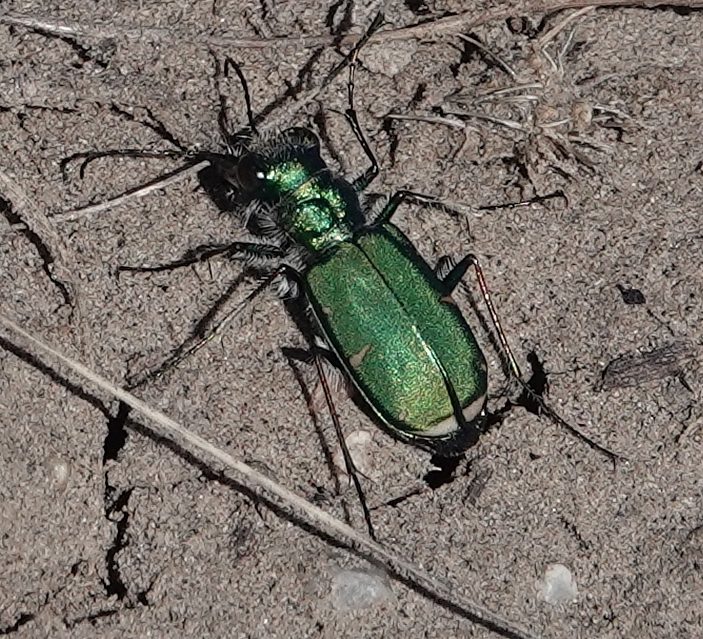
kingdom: Animalia
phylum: Arthropoda
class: Insecta
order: Coleoptera
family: Carabidae
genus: Cicindela
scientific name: Cicindela denverensis
